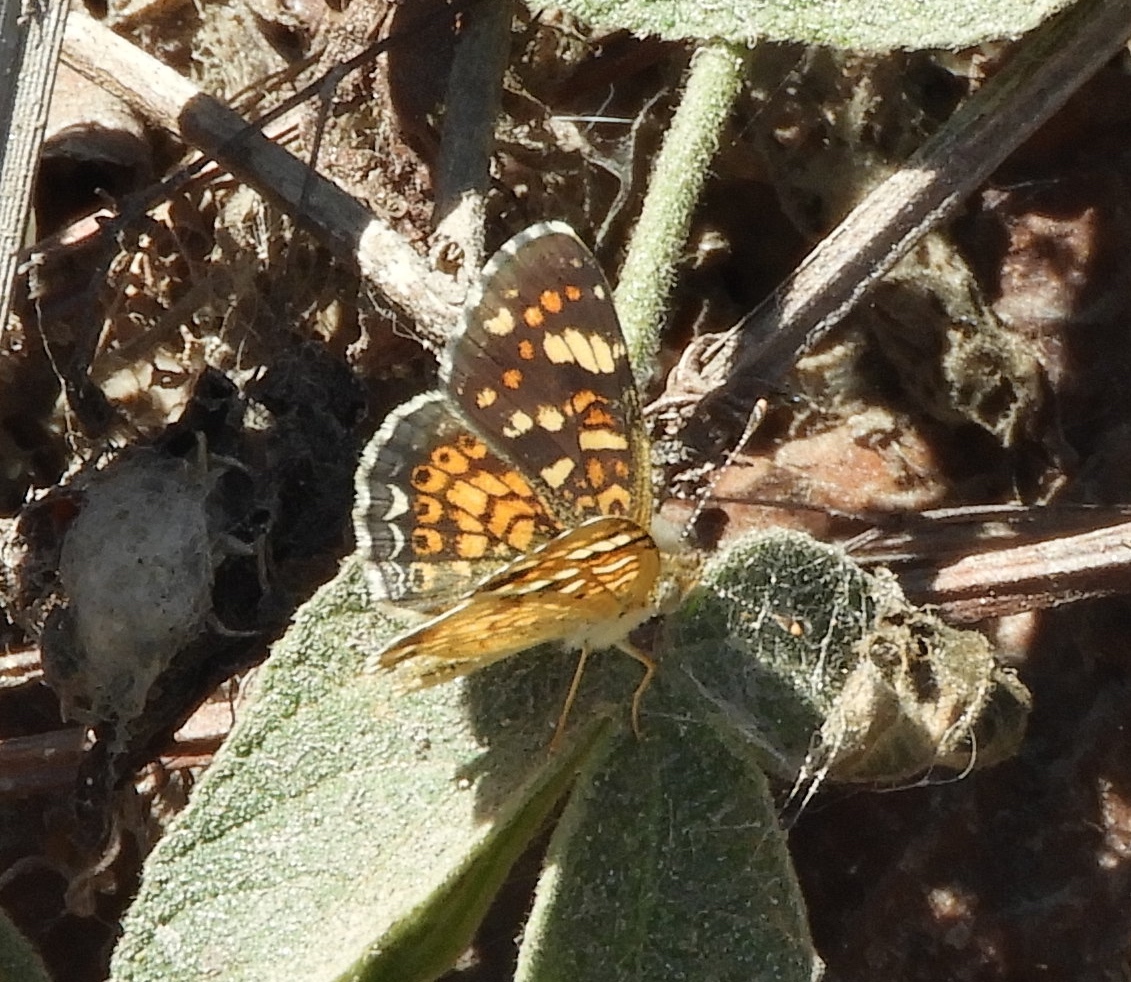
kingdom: Animalia
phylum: Arthropoda
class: Insecta
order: Lepidoptera
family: Nymphalidae
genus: Phyciodes
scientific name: Phyciodes picta
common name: Painted crescent
